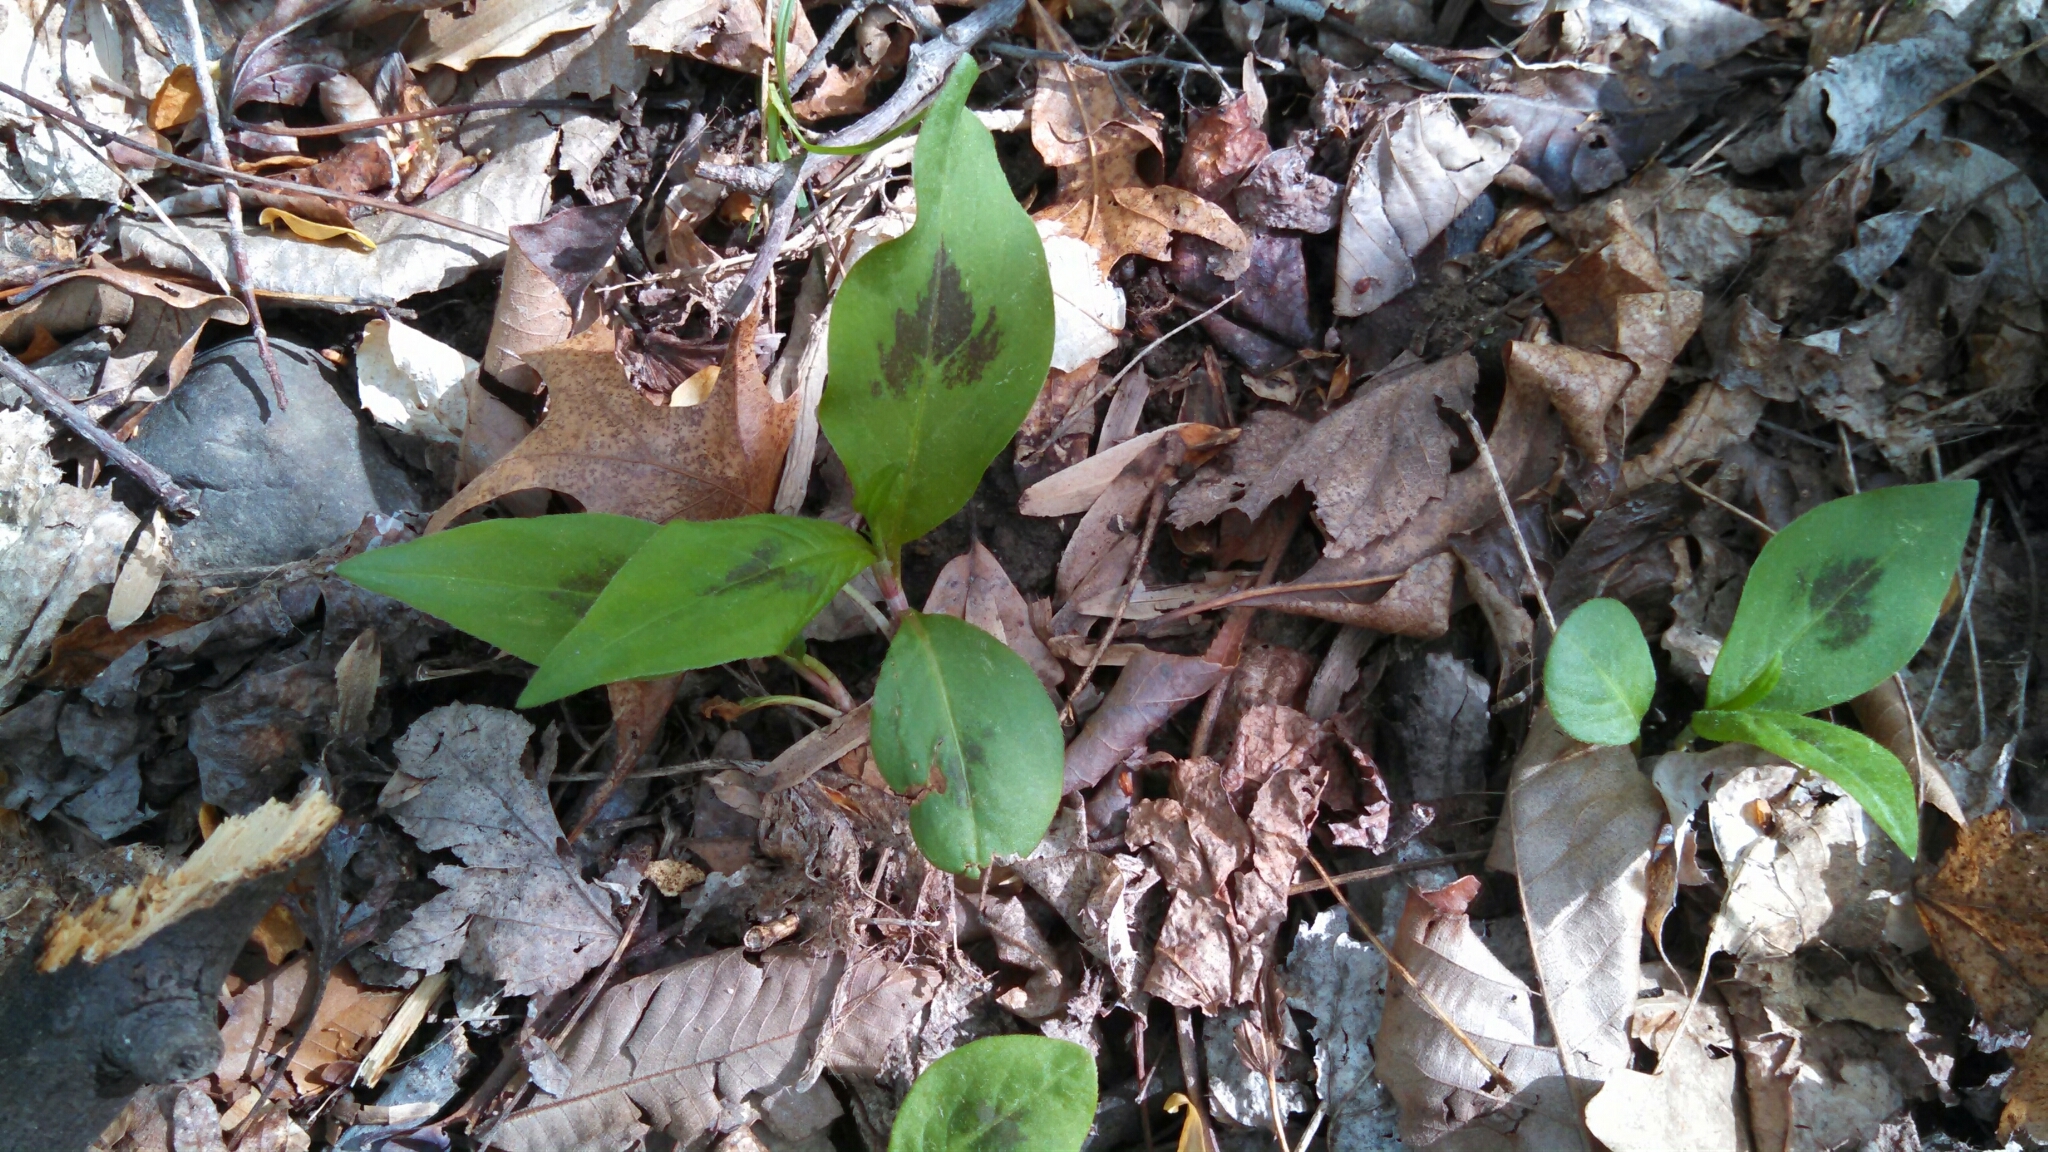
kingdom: Plantae
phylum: Tracheophyta
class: Magnoliopsida
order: Caryophyllales
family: Polygonaceae
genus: Persicaria
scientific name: Persicaria virginiana
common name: Jumpseed
